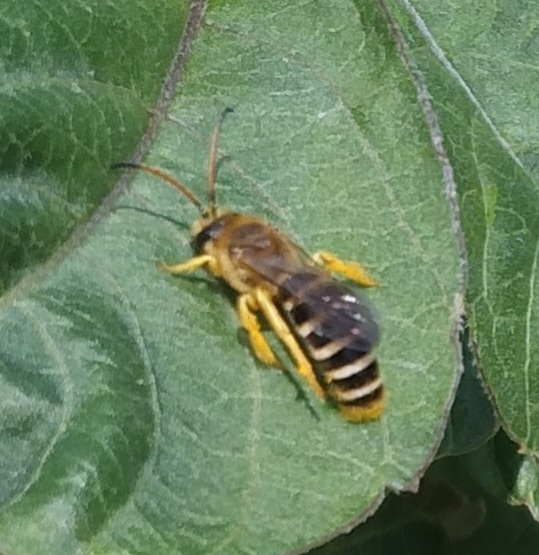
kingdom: Animalia
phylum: Arthropoda
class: Insecta
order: Hymenoptera
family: Halictidae
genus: Halictus
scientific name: Halictus sexcinctus
